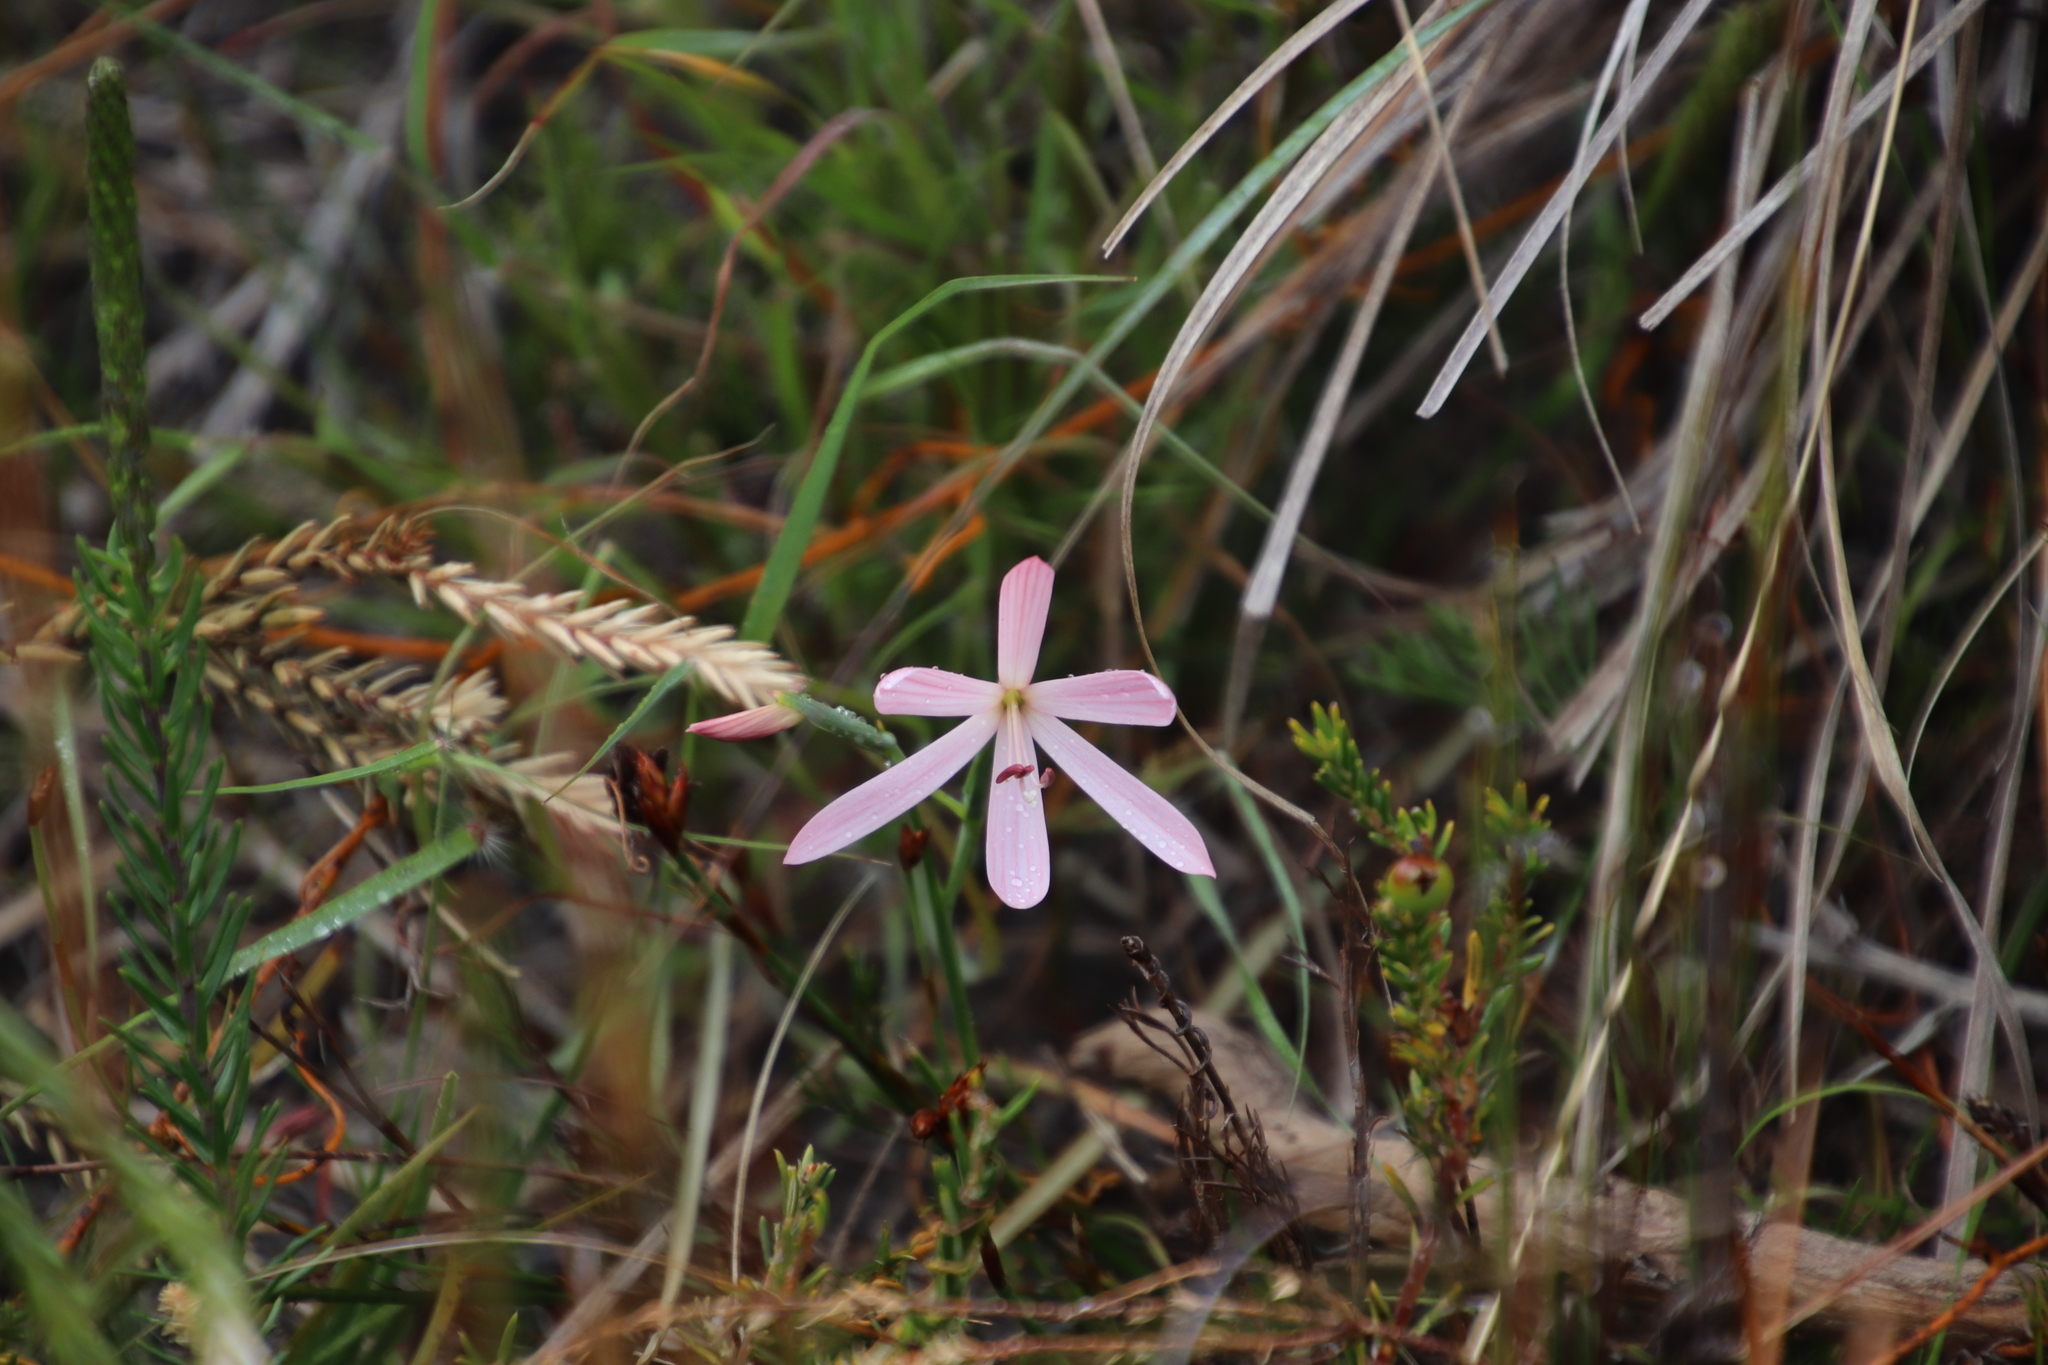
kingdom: Plantae
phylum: Tracheophyta
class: Liliopsida
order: Asparagales
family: Iridaceae
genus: Geissorhiza
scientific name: Geissorhiza bonae-spei
